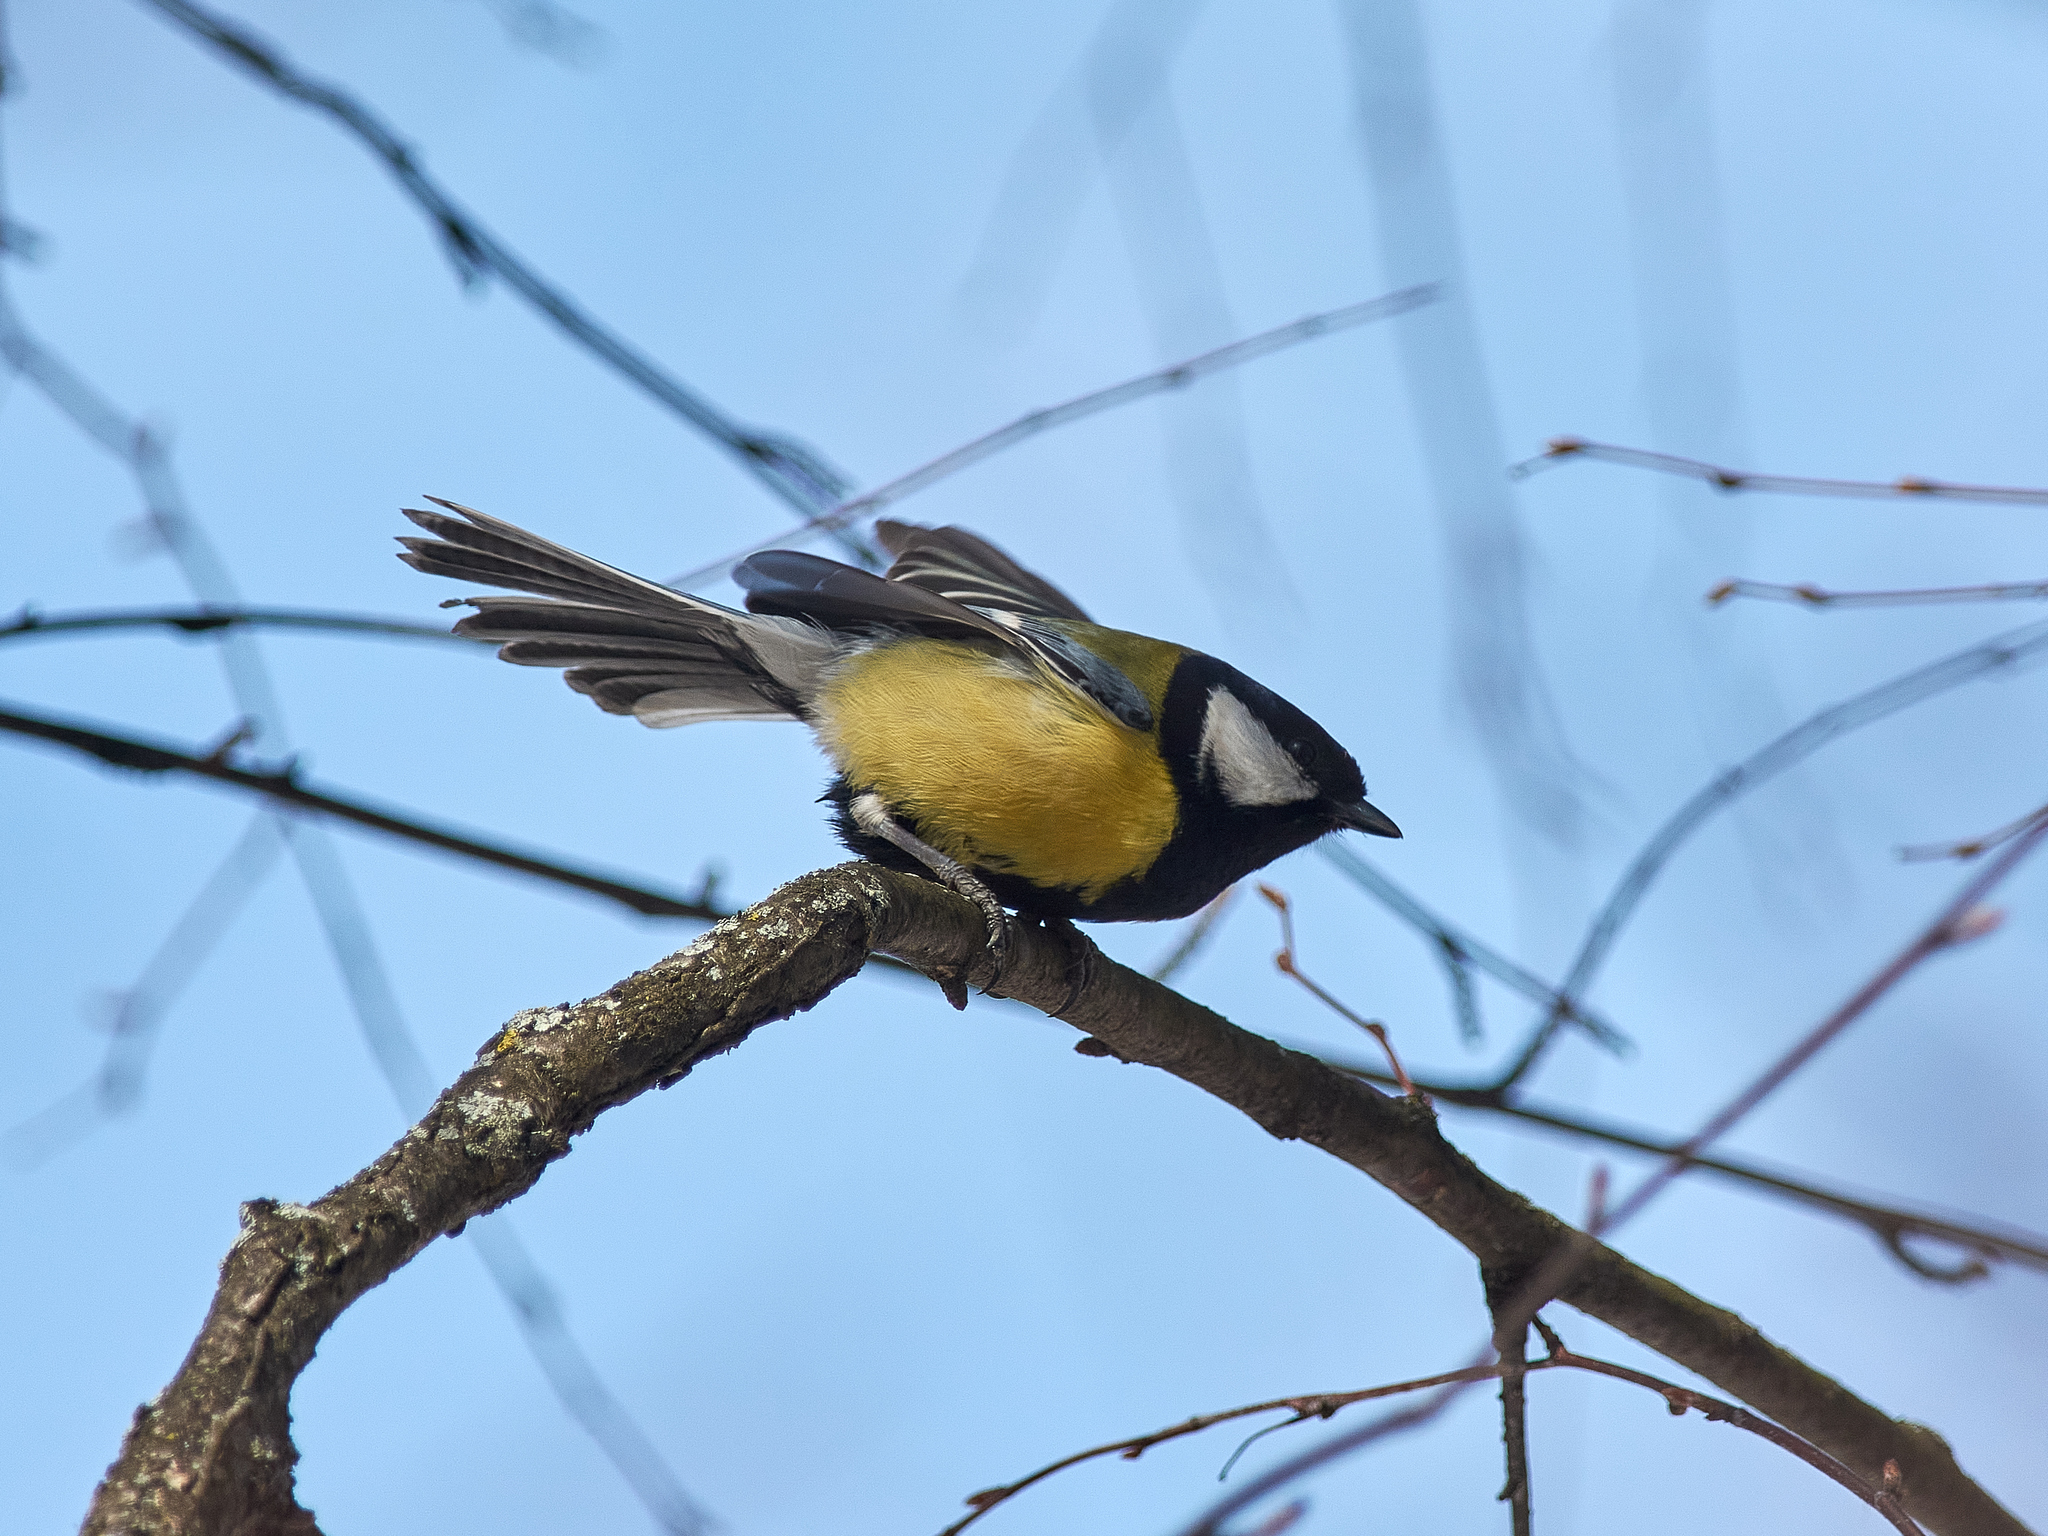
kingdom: Animalia
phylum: Chordata
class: Aves
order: Passeriformes
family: Paridae
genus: Parus
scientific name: Parus major
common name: Great tit
